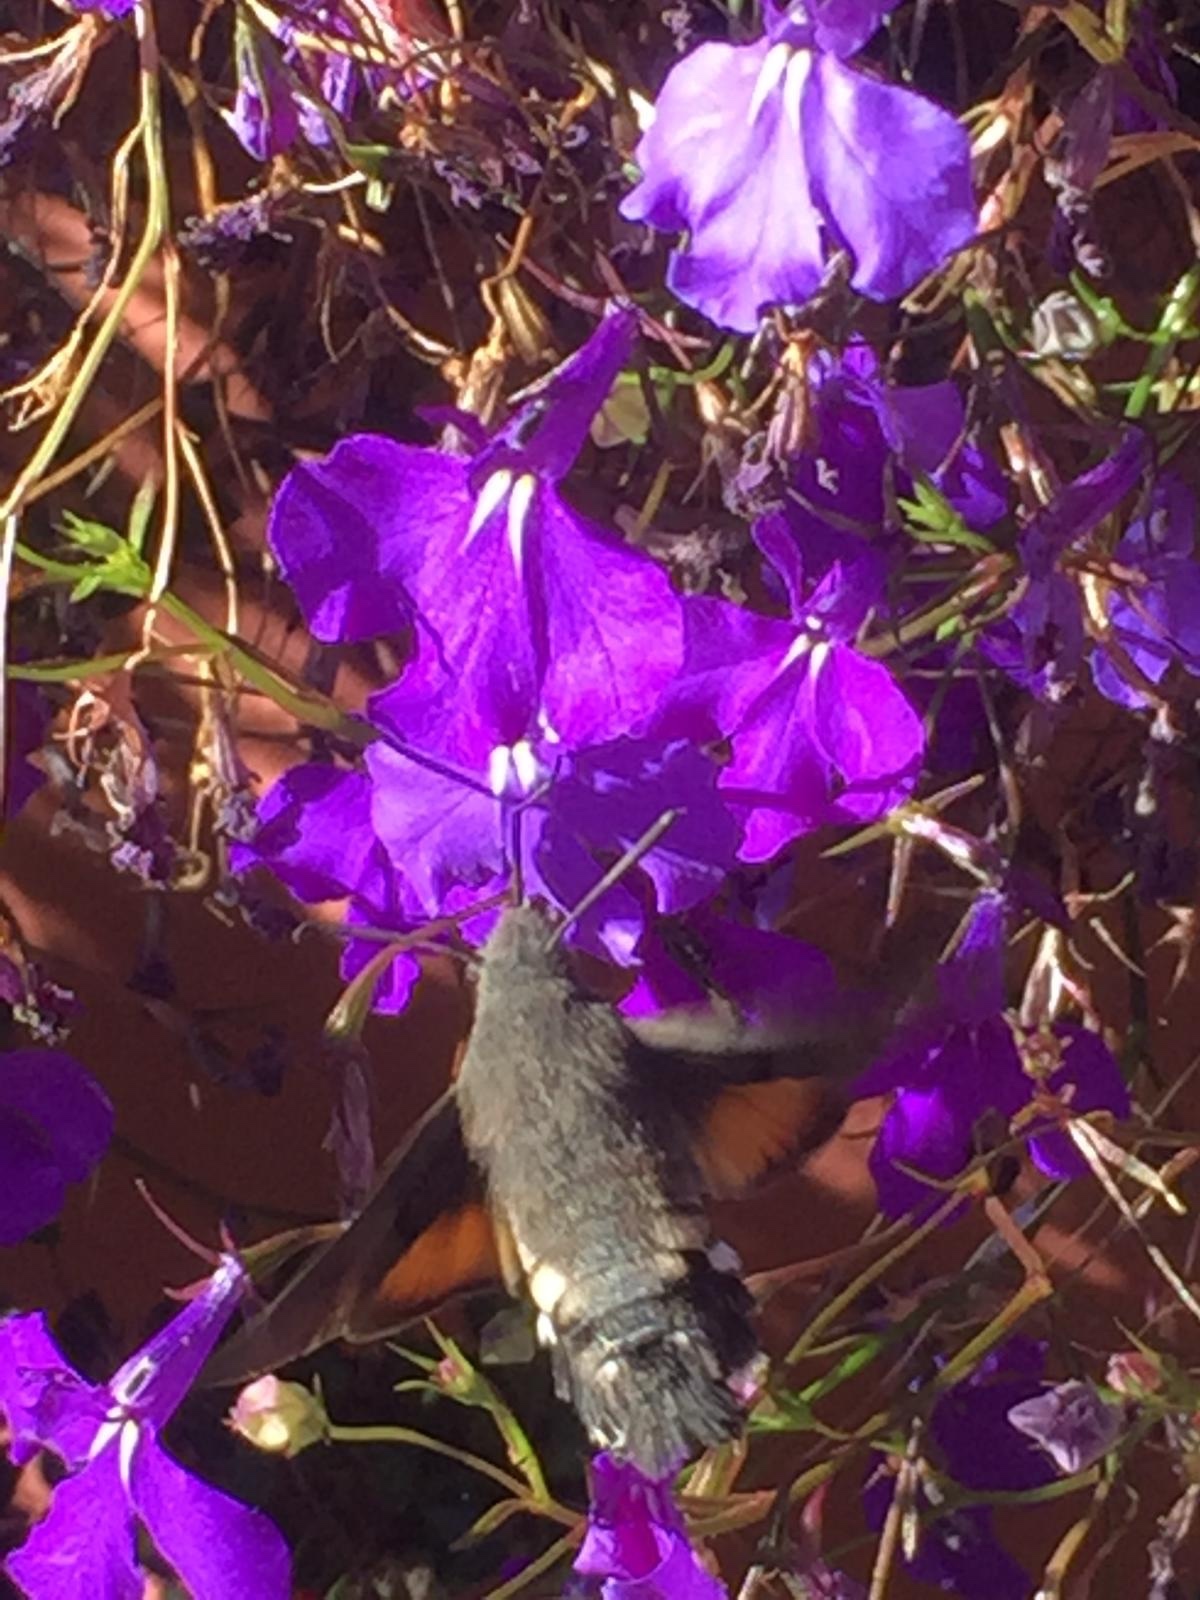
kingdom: Animalia
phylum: Arthropoda
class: Insecta
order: Lepidoptera
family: Sphingidae
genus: Macroglossum
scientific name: Macroglossum stellatarum
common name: Humming-bird hawk-moth
